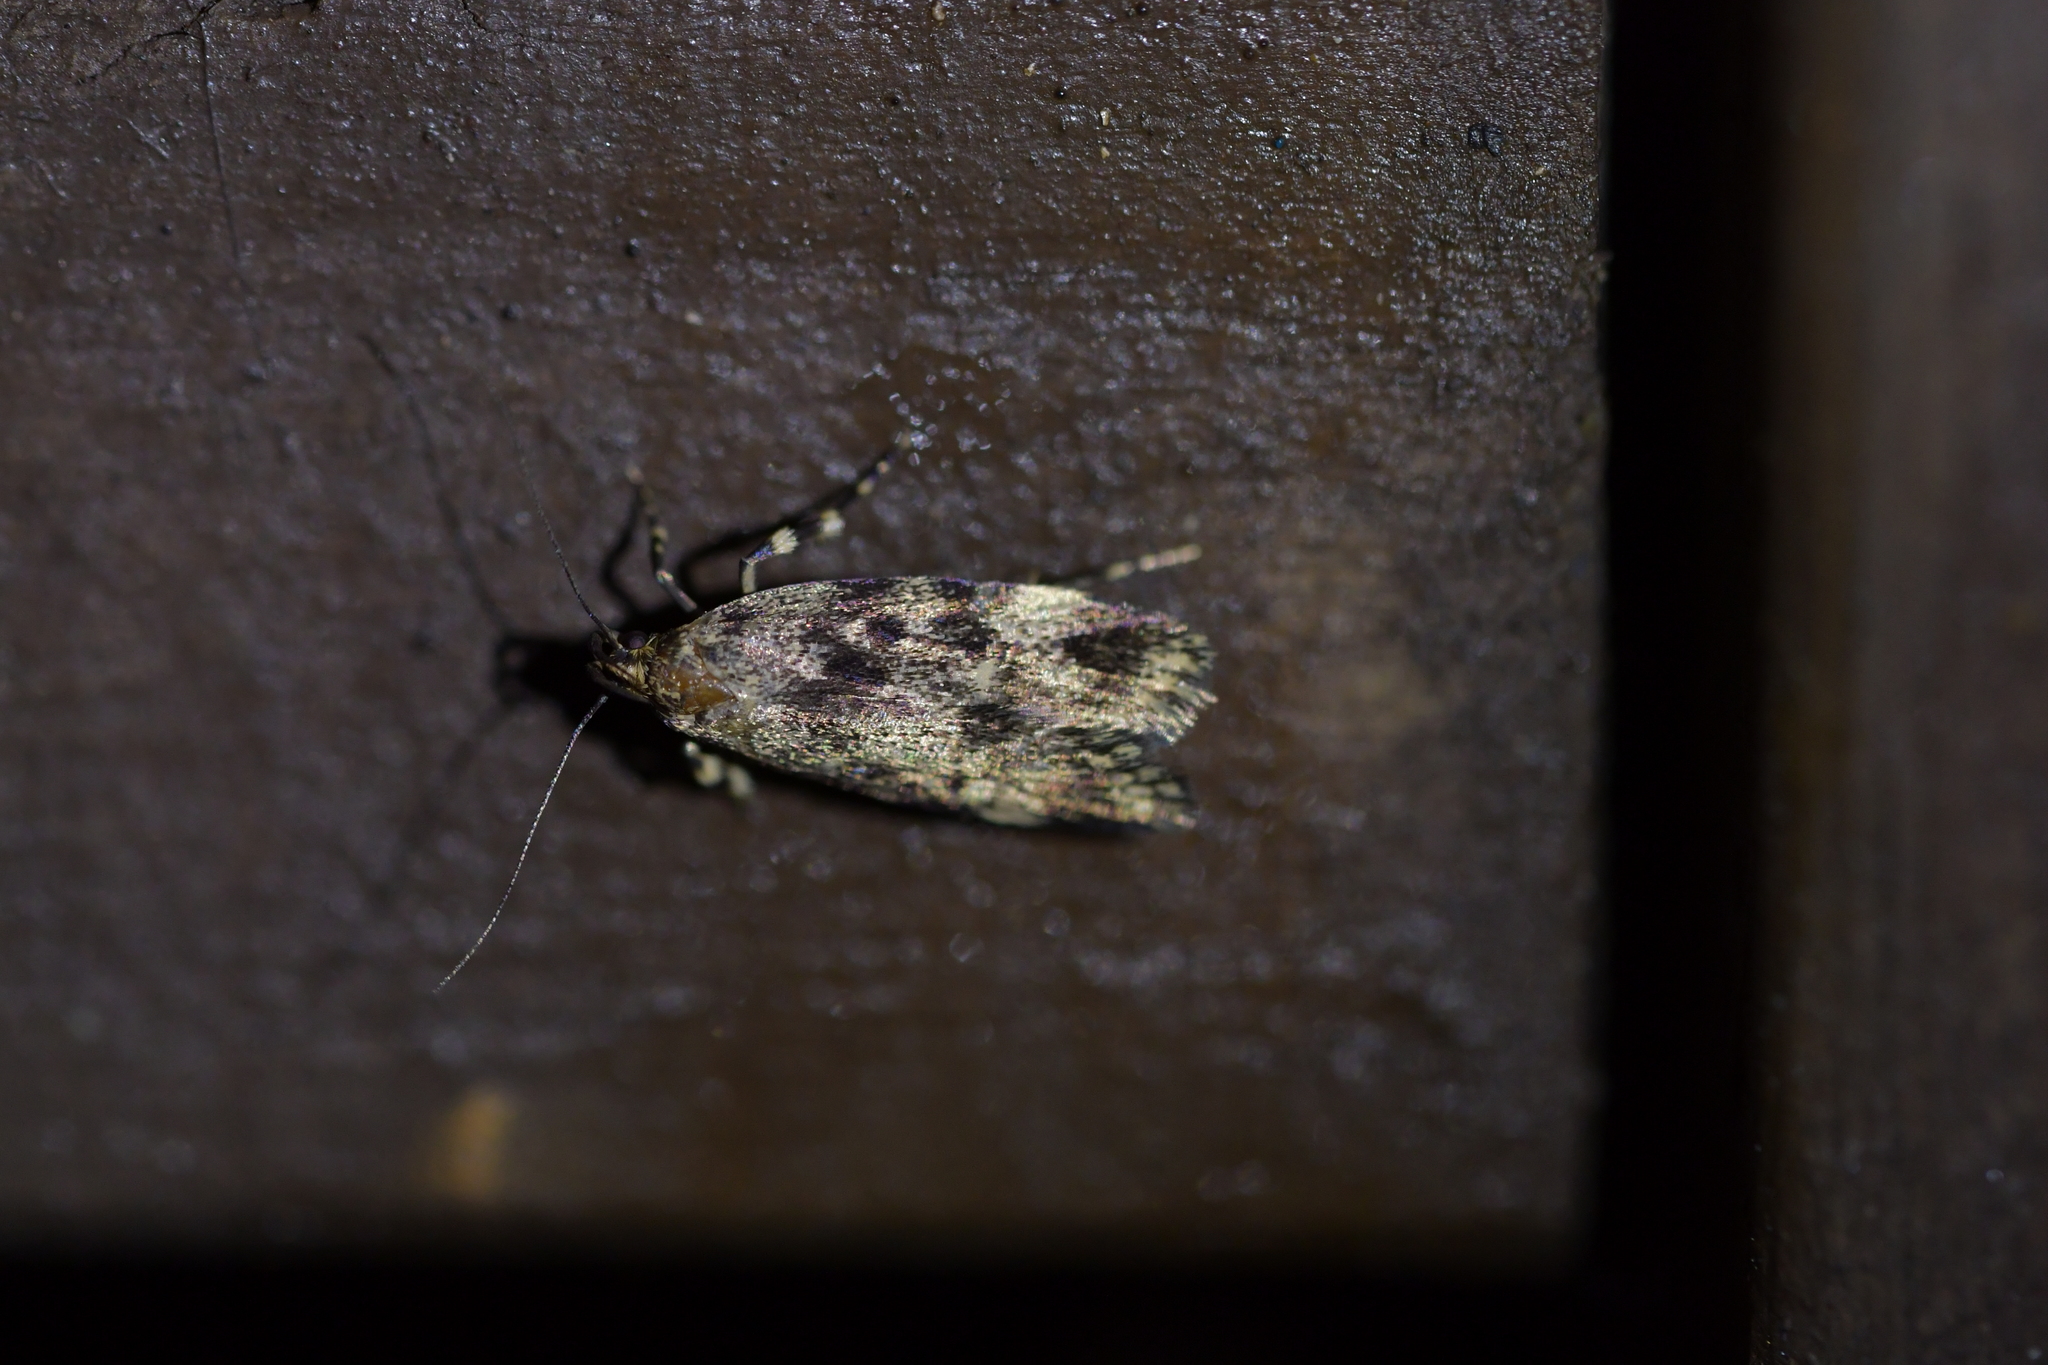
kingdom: Animalia
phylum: Arthropoda
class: Insecta
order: Lepidoptera
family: Oecophoridae
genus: Barea
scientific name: Barea codrella
